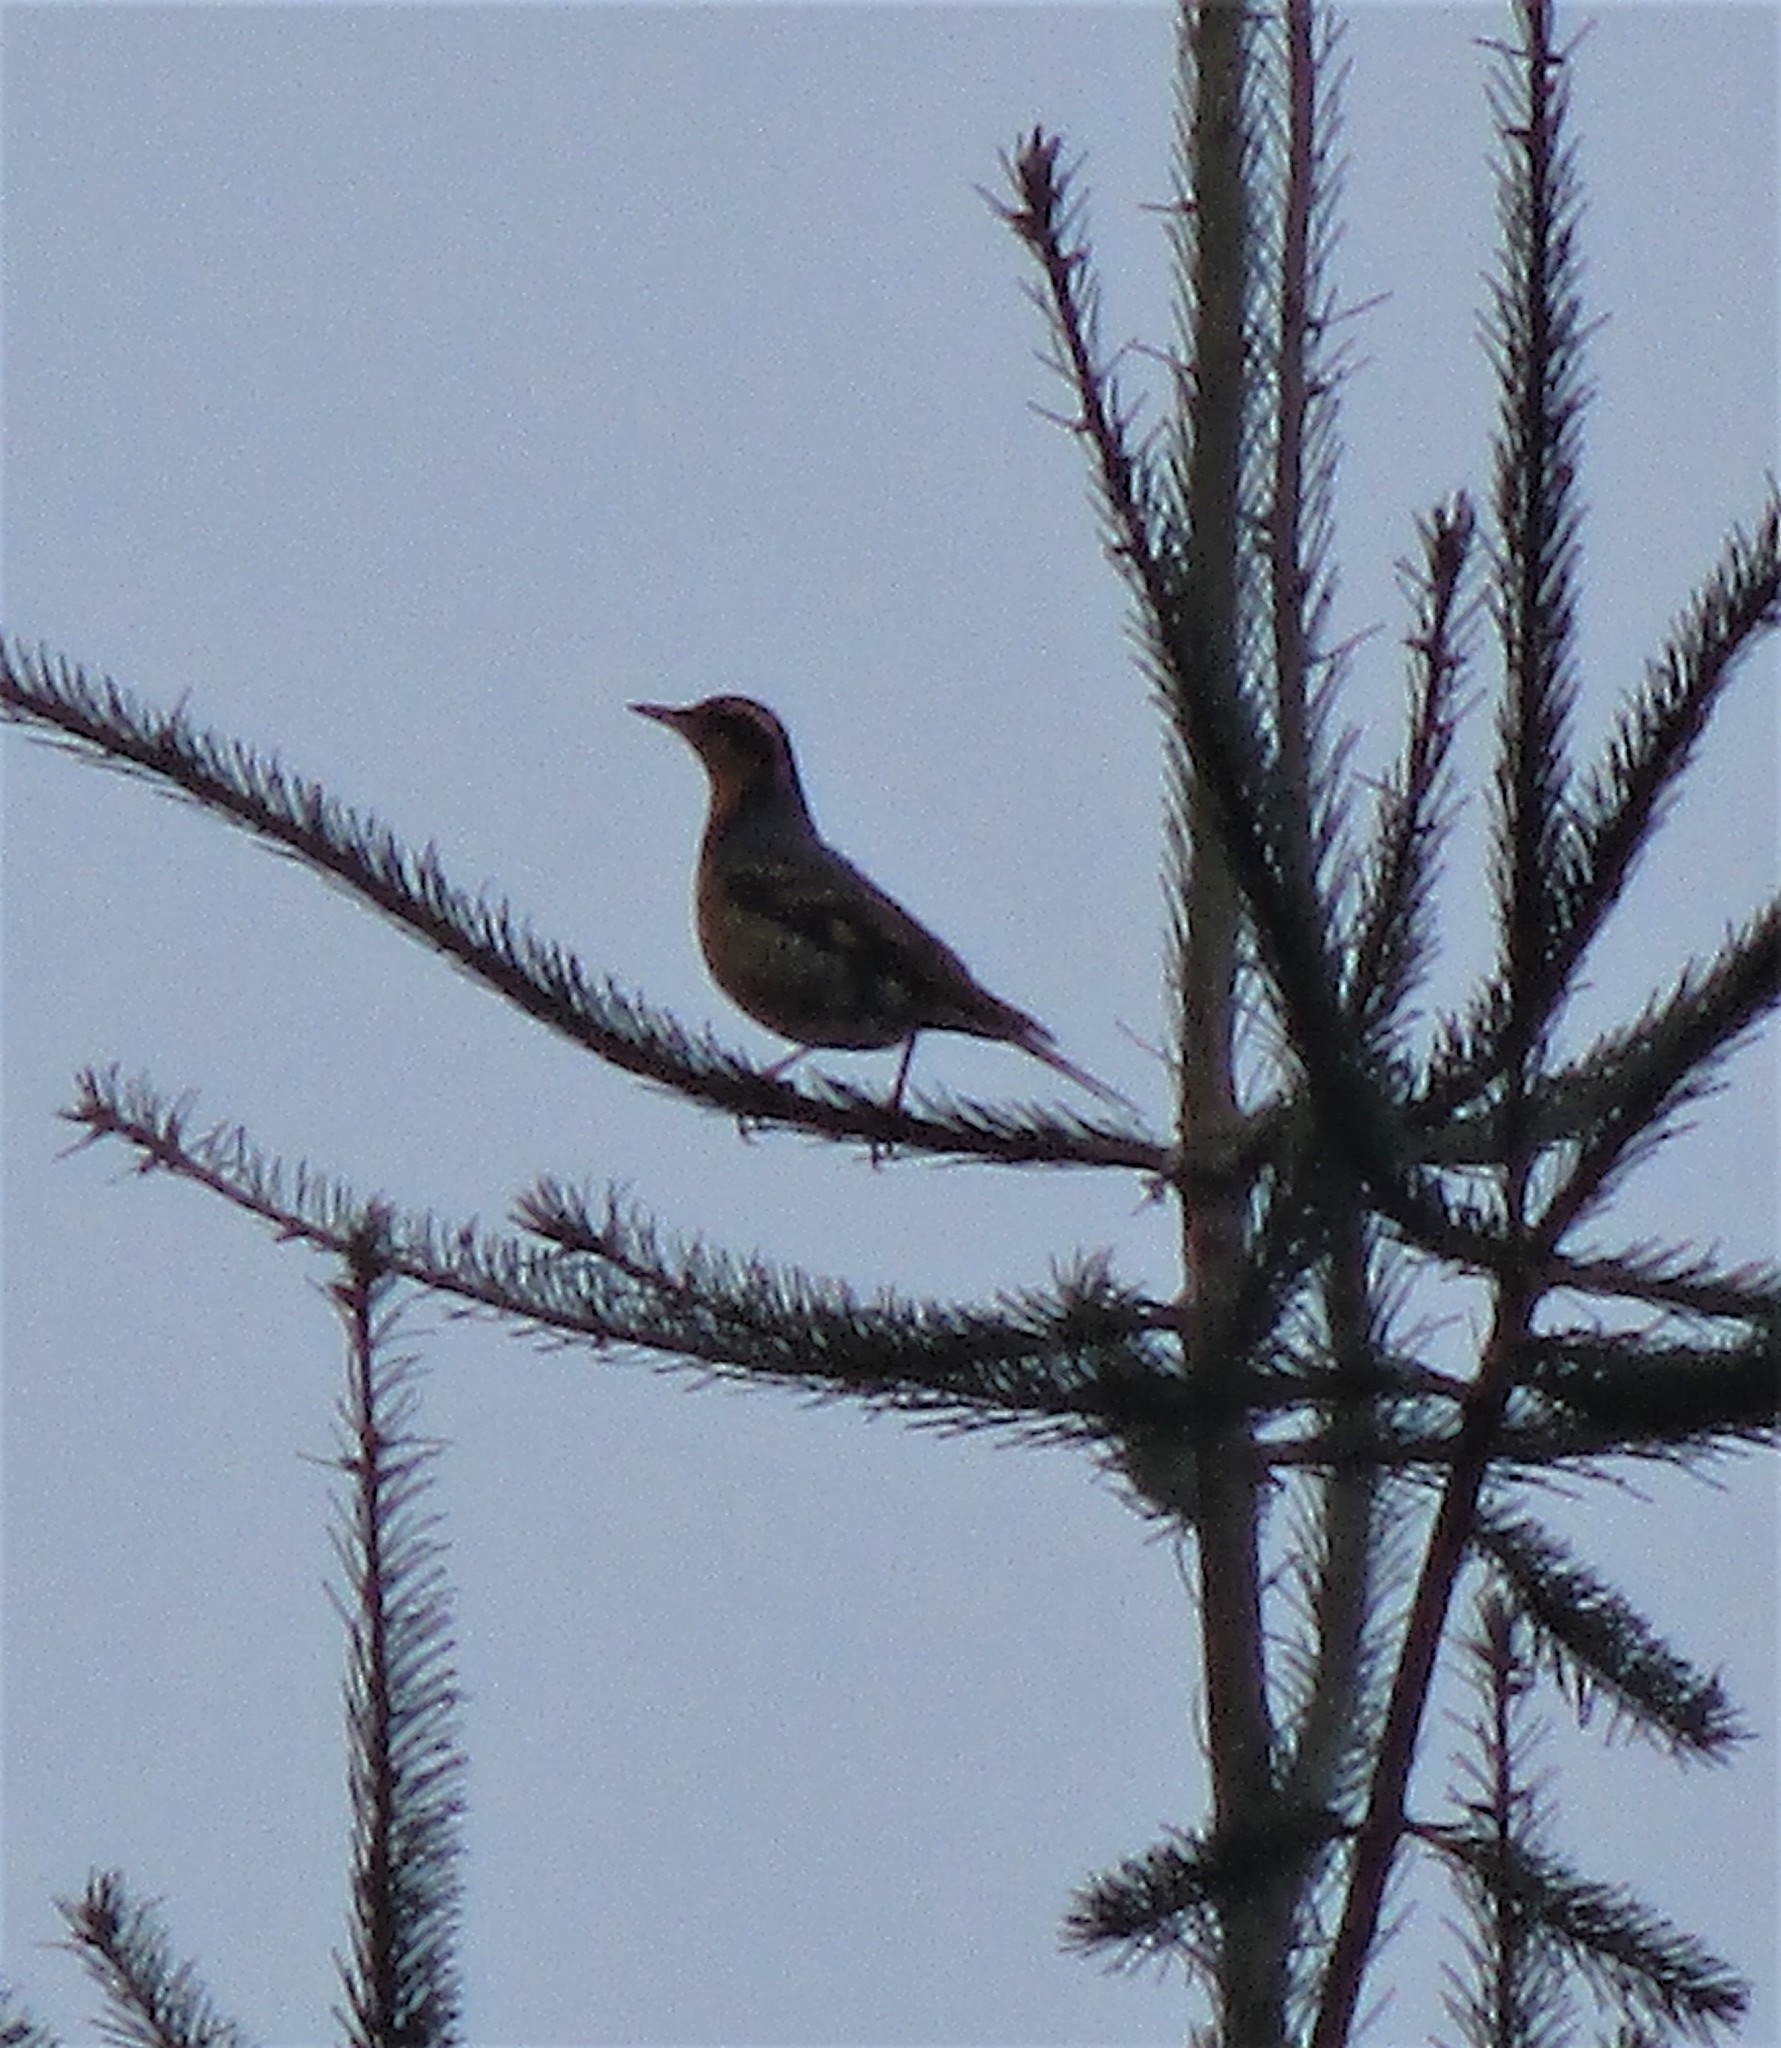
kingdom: Animalia
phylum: Chordata
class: Aves
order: Passeriformes
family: Turdidae
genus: Ixoreus
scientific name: Ixoreus naevius
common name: Varied thrush
